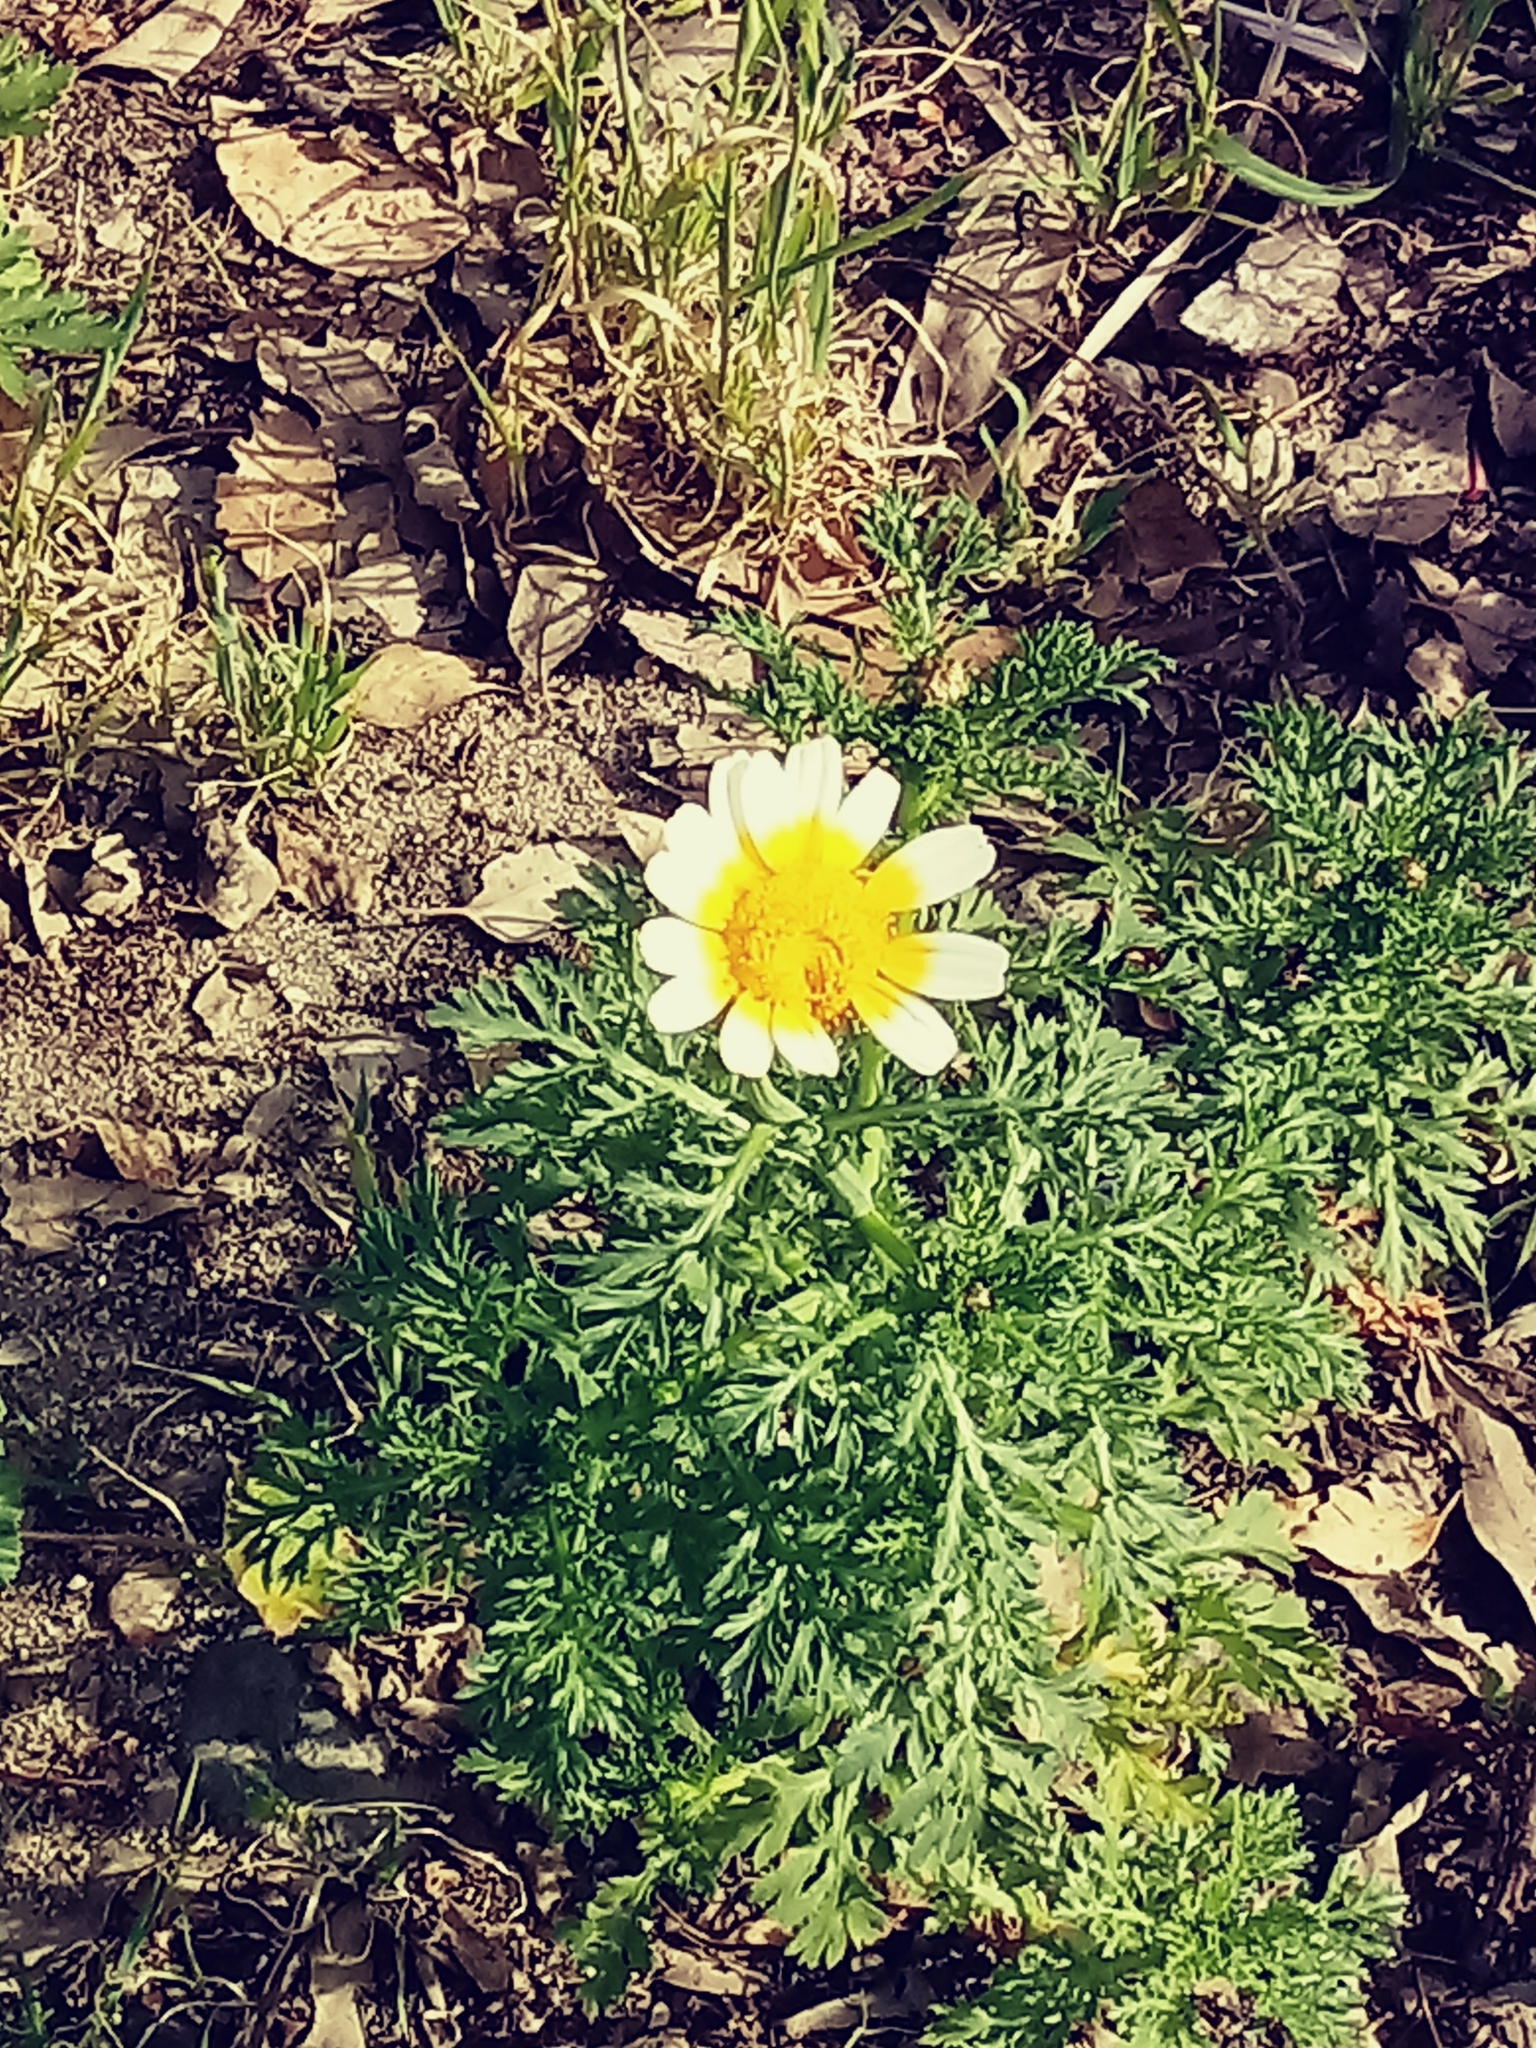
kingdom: Plantae
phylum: Tracheophyta
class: Magnoliopsida
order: Asterales
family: Asteraceae
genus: Glebionis
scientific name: Glebionis coronaria
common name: Crowndaisy
